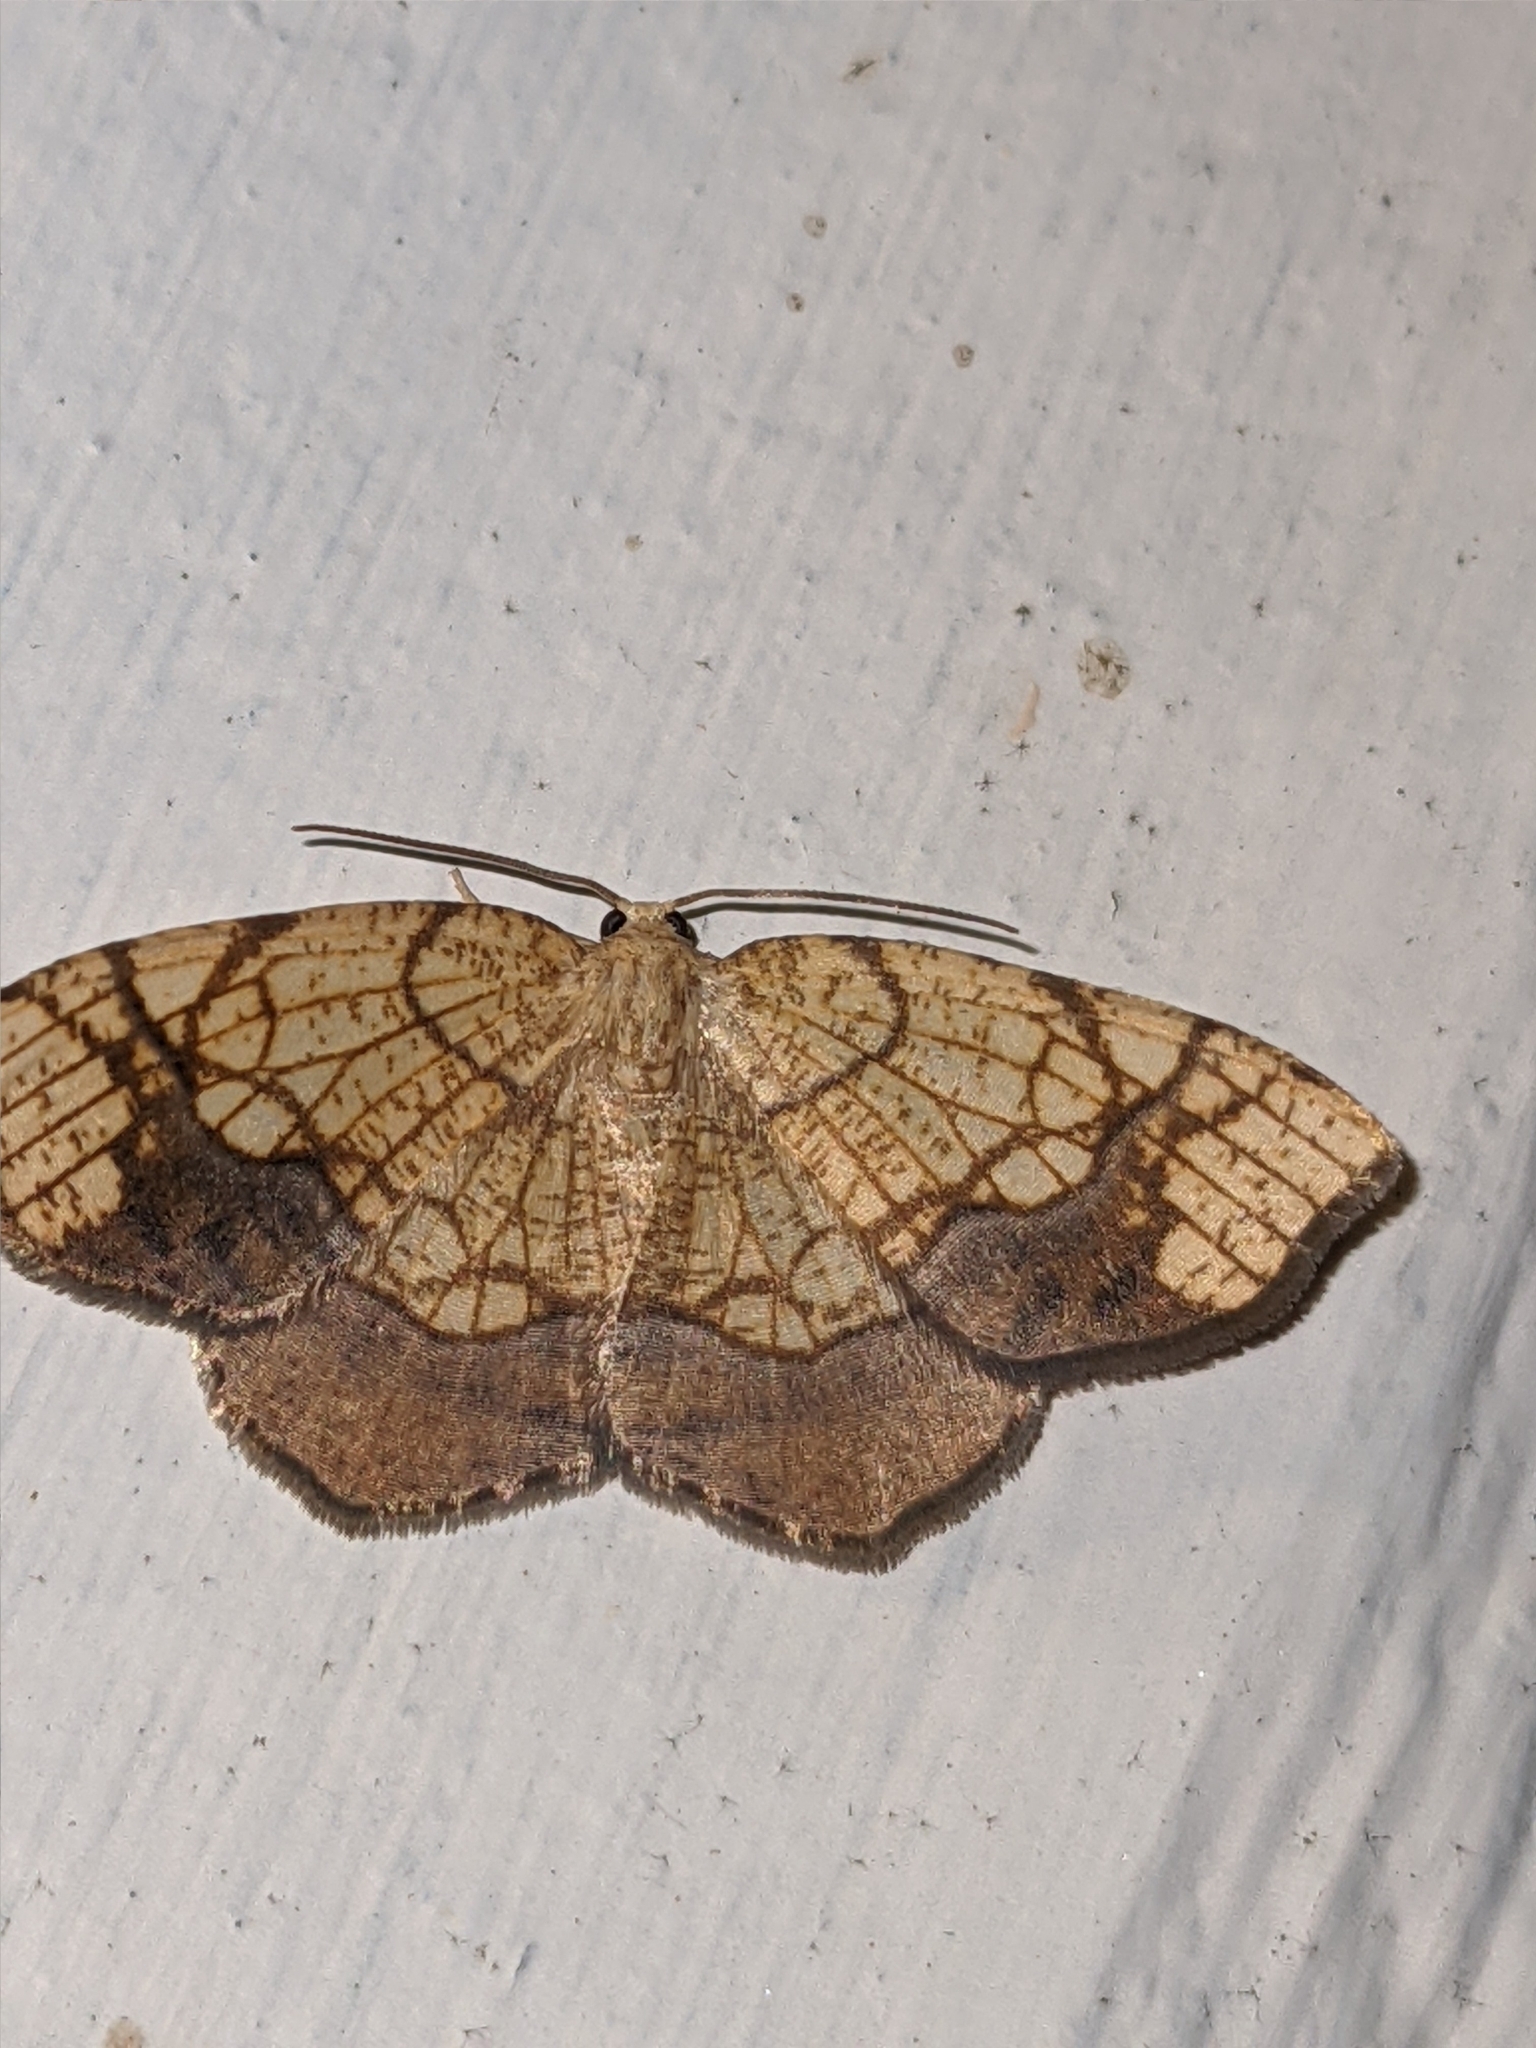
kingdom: Animalia
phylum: Arthropoda
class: Insecta
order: Lepidoptera
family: Geometridae
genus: Nematocampa
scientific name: Nematocampa resistaria
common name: Horned spanworm moth
